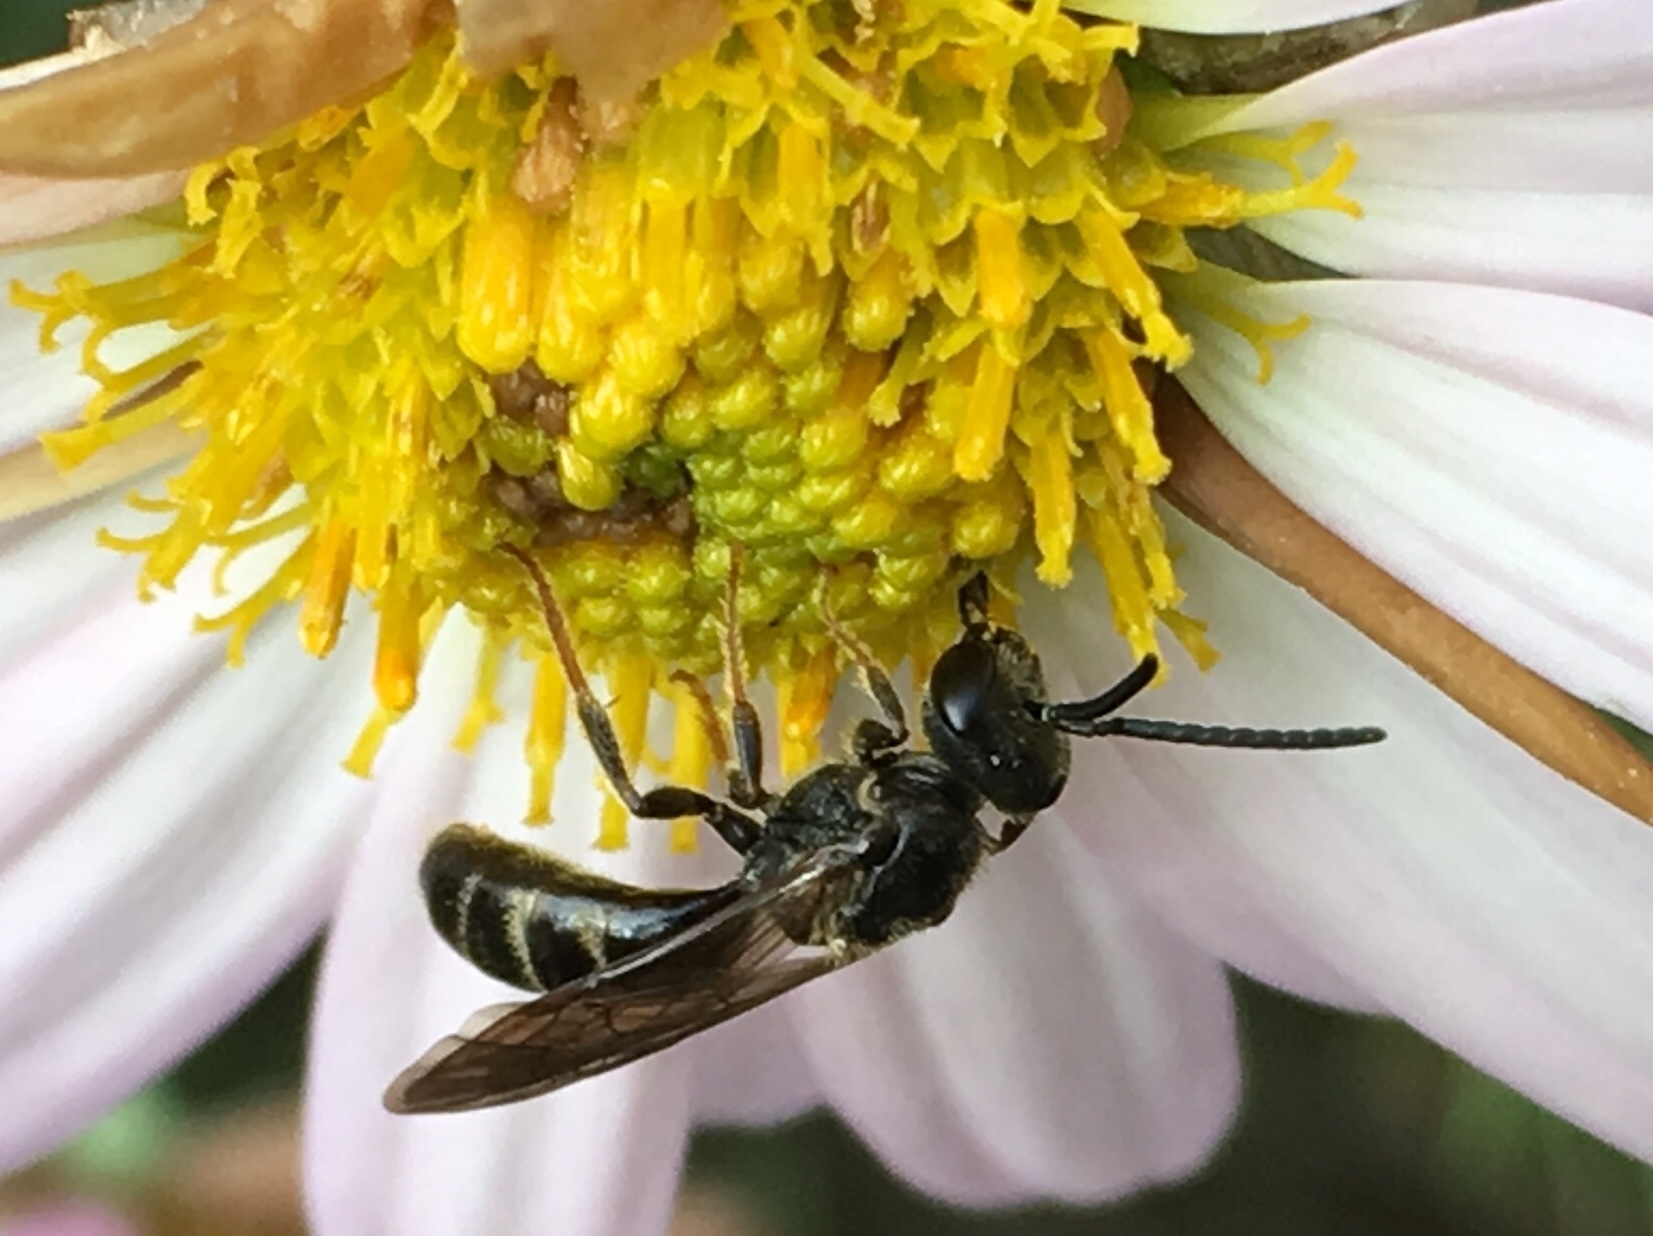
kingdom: Animalia
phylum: Arthropoda
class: Insecta
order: Hymenoptera
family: Halictidae
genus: Lasioglossum
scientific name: Lasioglossum fuscipenne
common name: Brown-winged sweat bee
